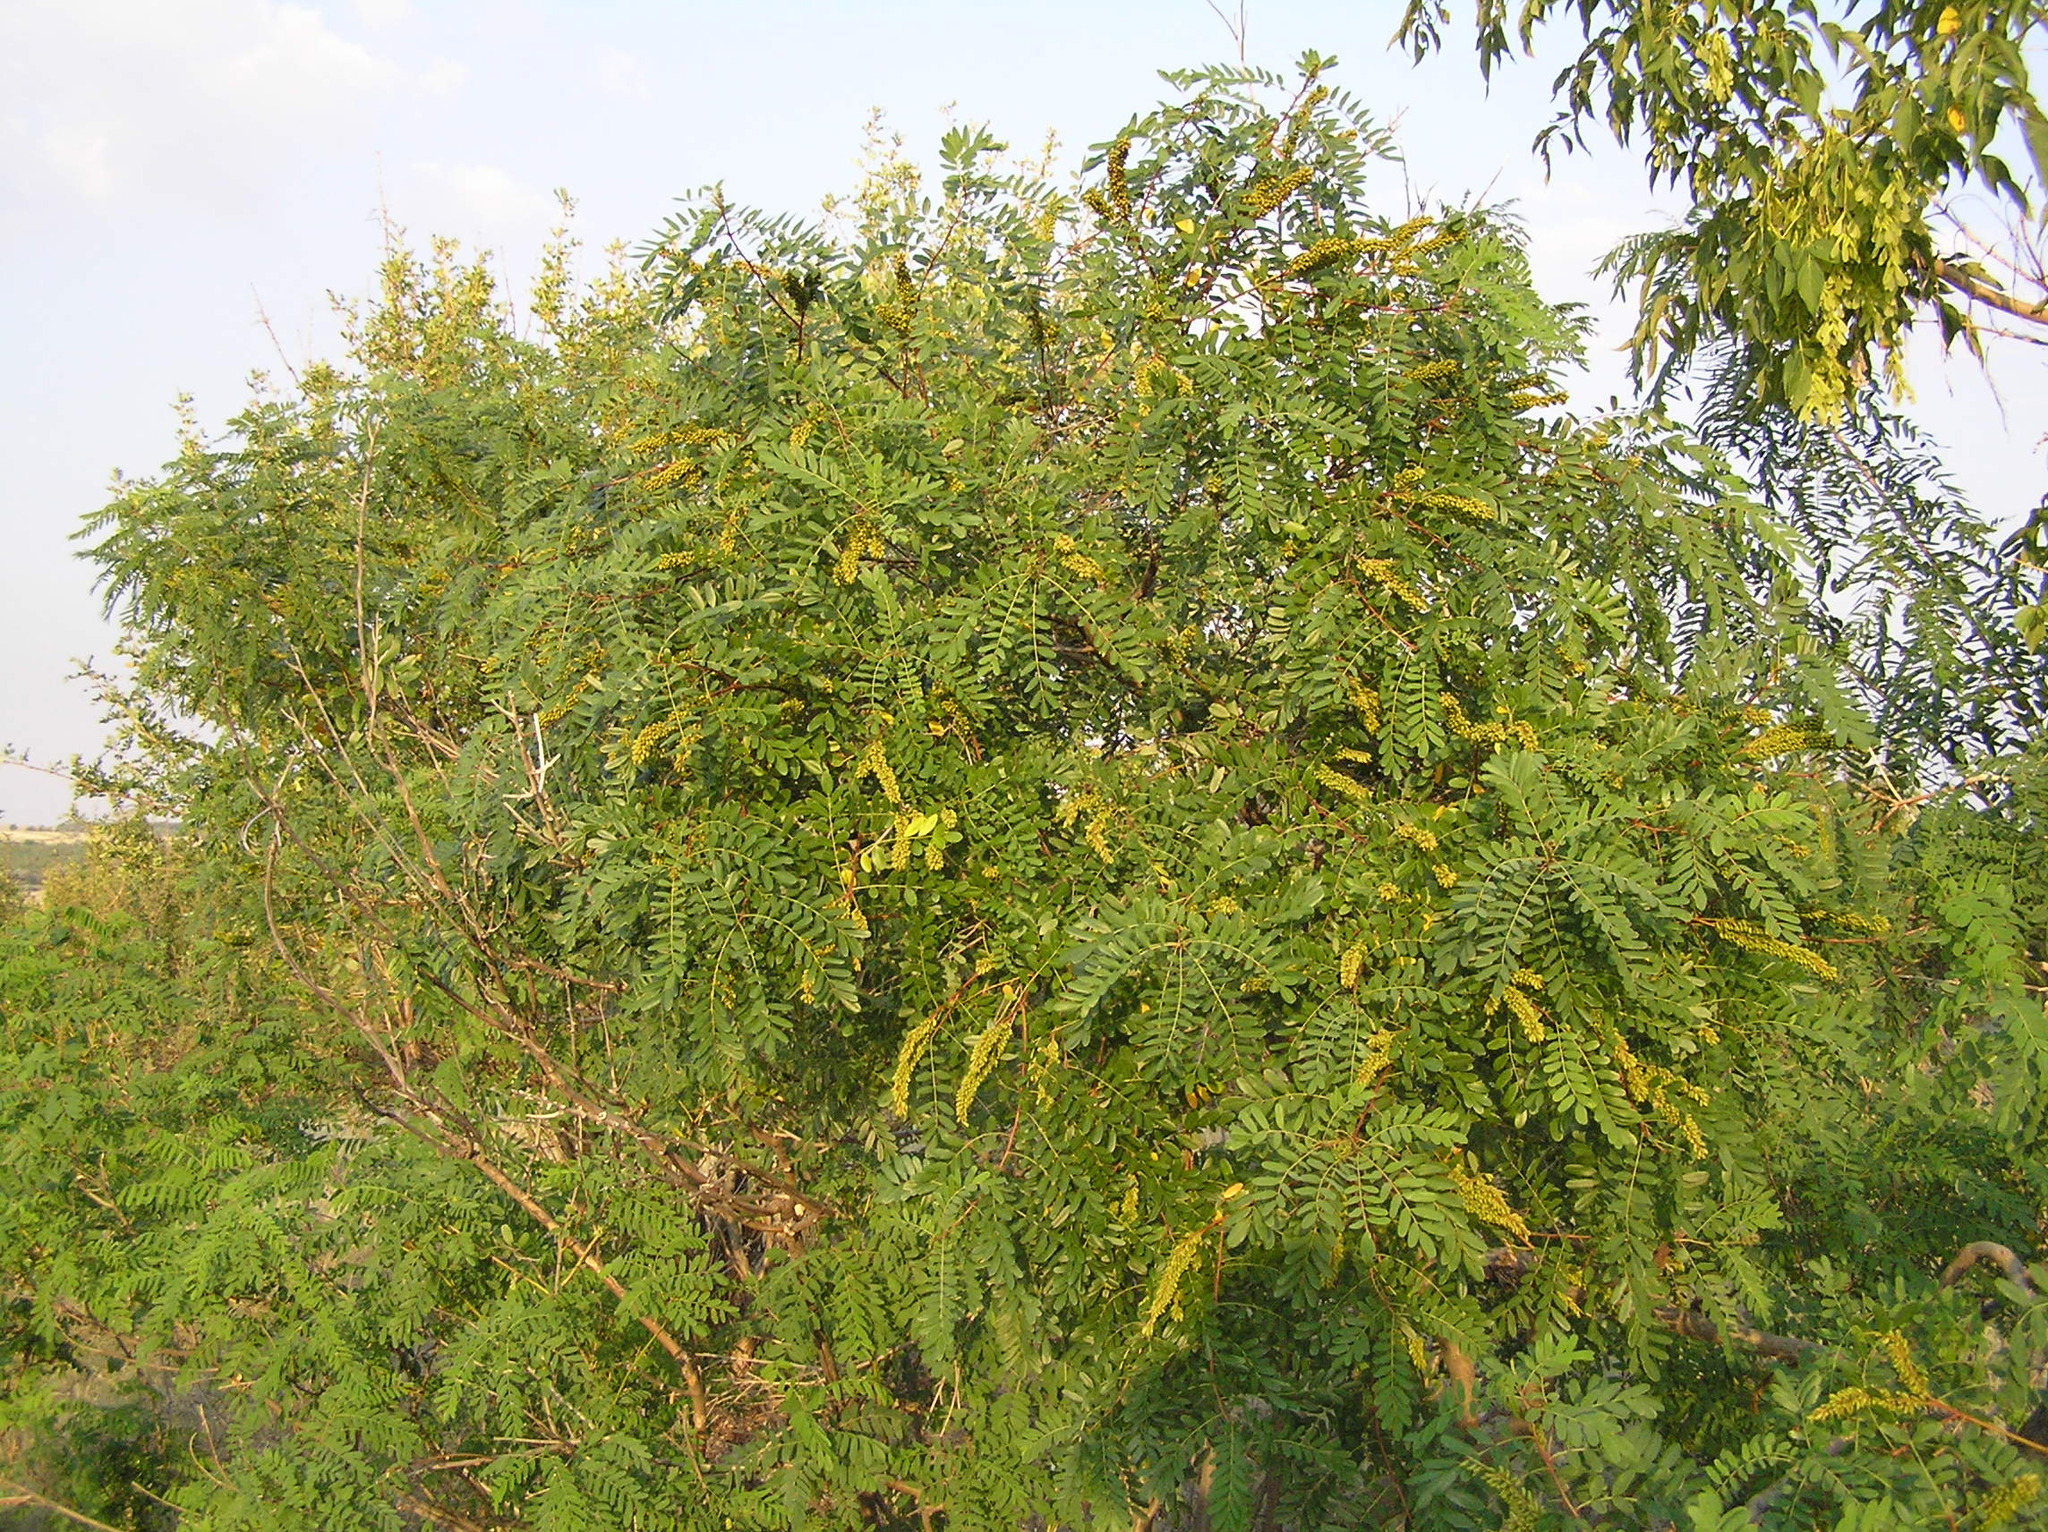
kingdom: Plantae
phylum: Tracheophyta
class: Magnoliopsida
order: Fabales
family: Fabaceae
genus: Amorpha
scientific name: Amorpha fruticosa
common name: False indigo
